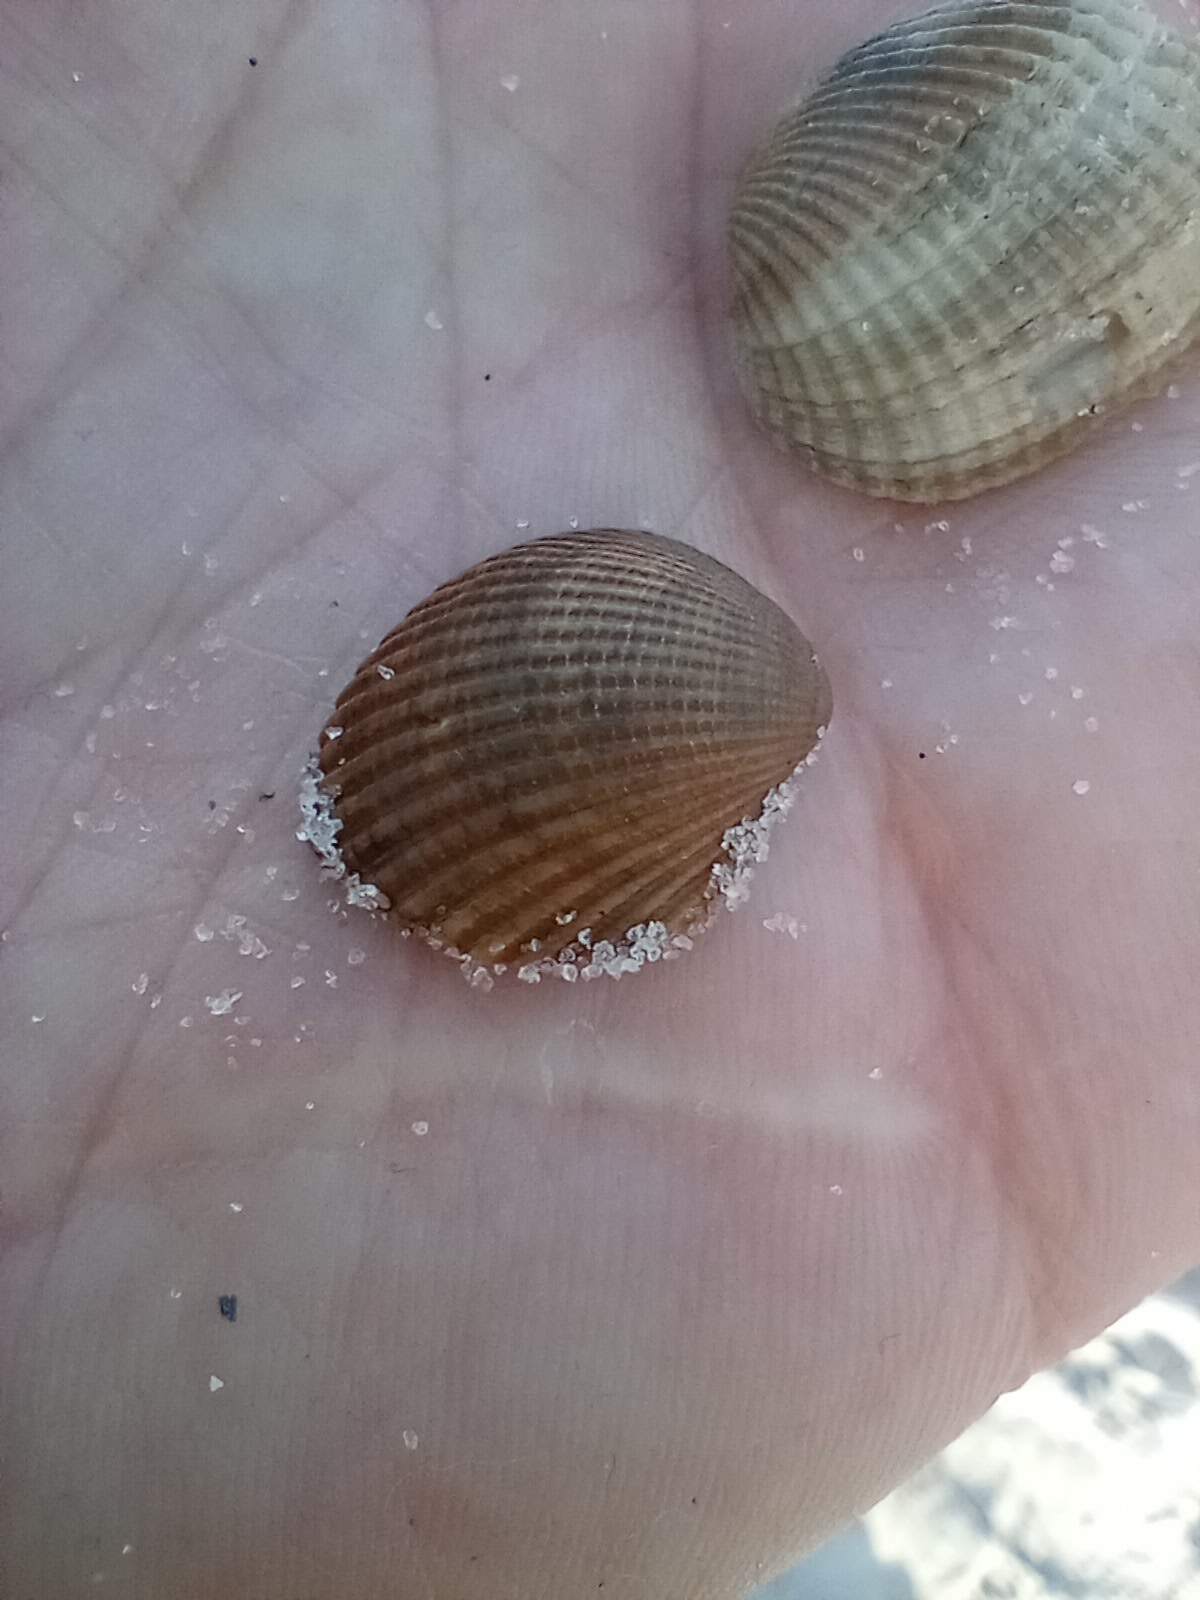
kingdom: Animalia
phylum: Mollusca
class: Bivalvia
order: Arcida
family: Arcidae
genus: Lunarca
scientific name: Lunarca ovalis
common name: Blood ark
